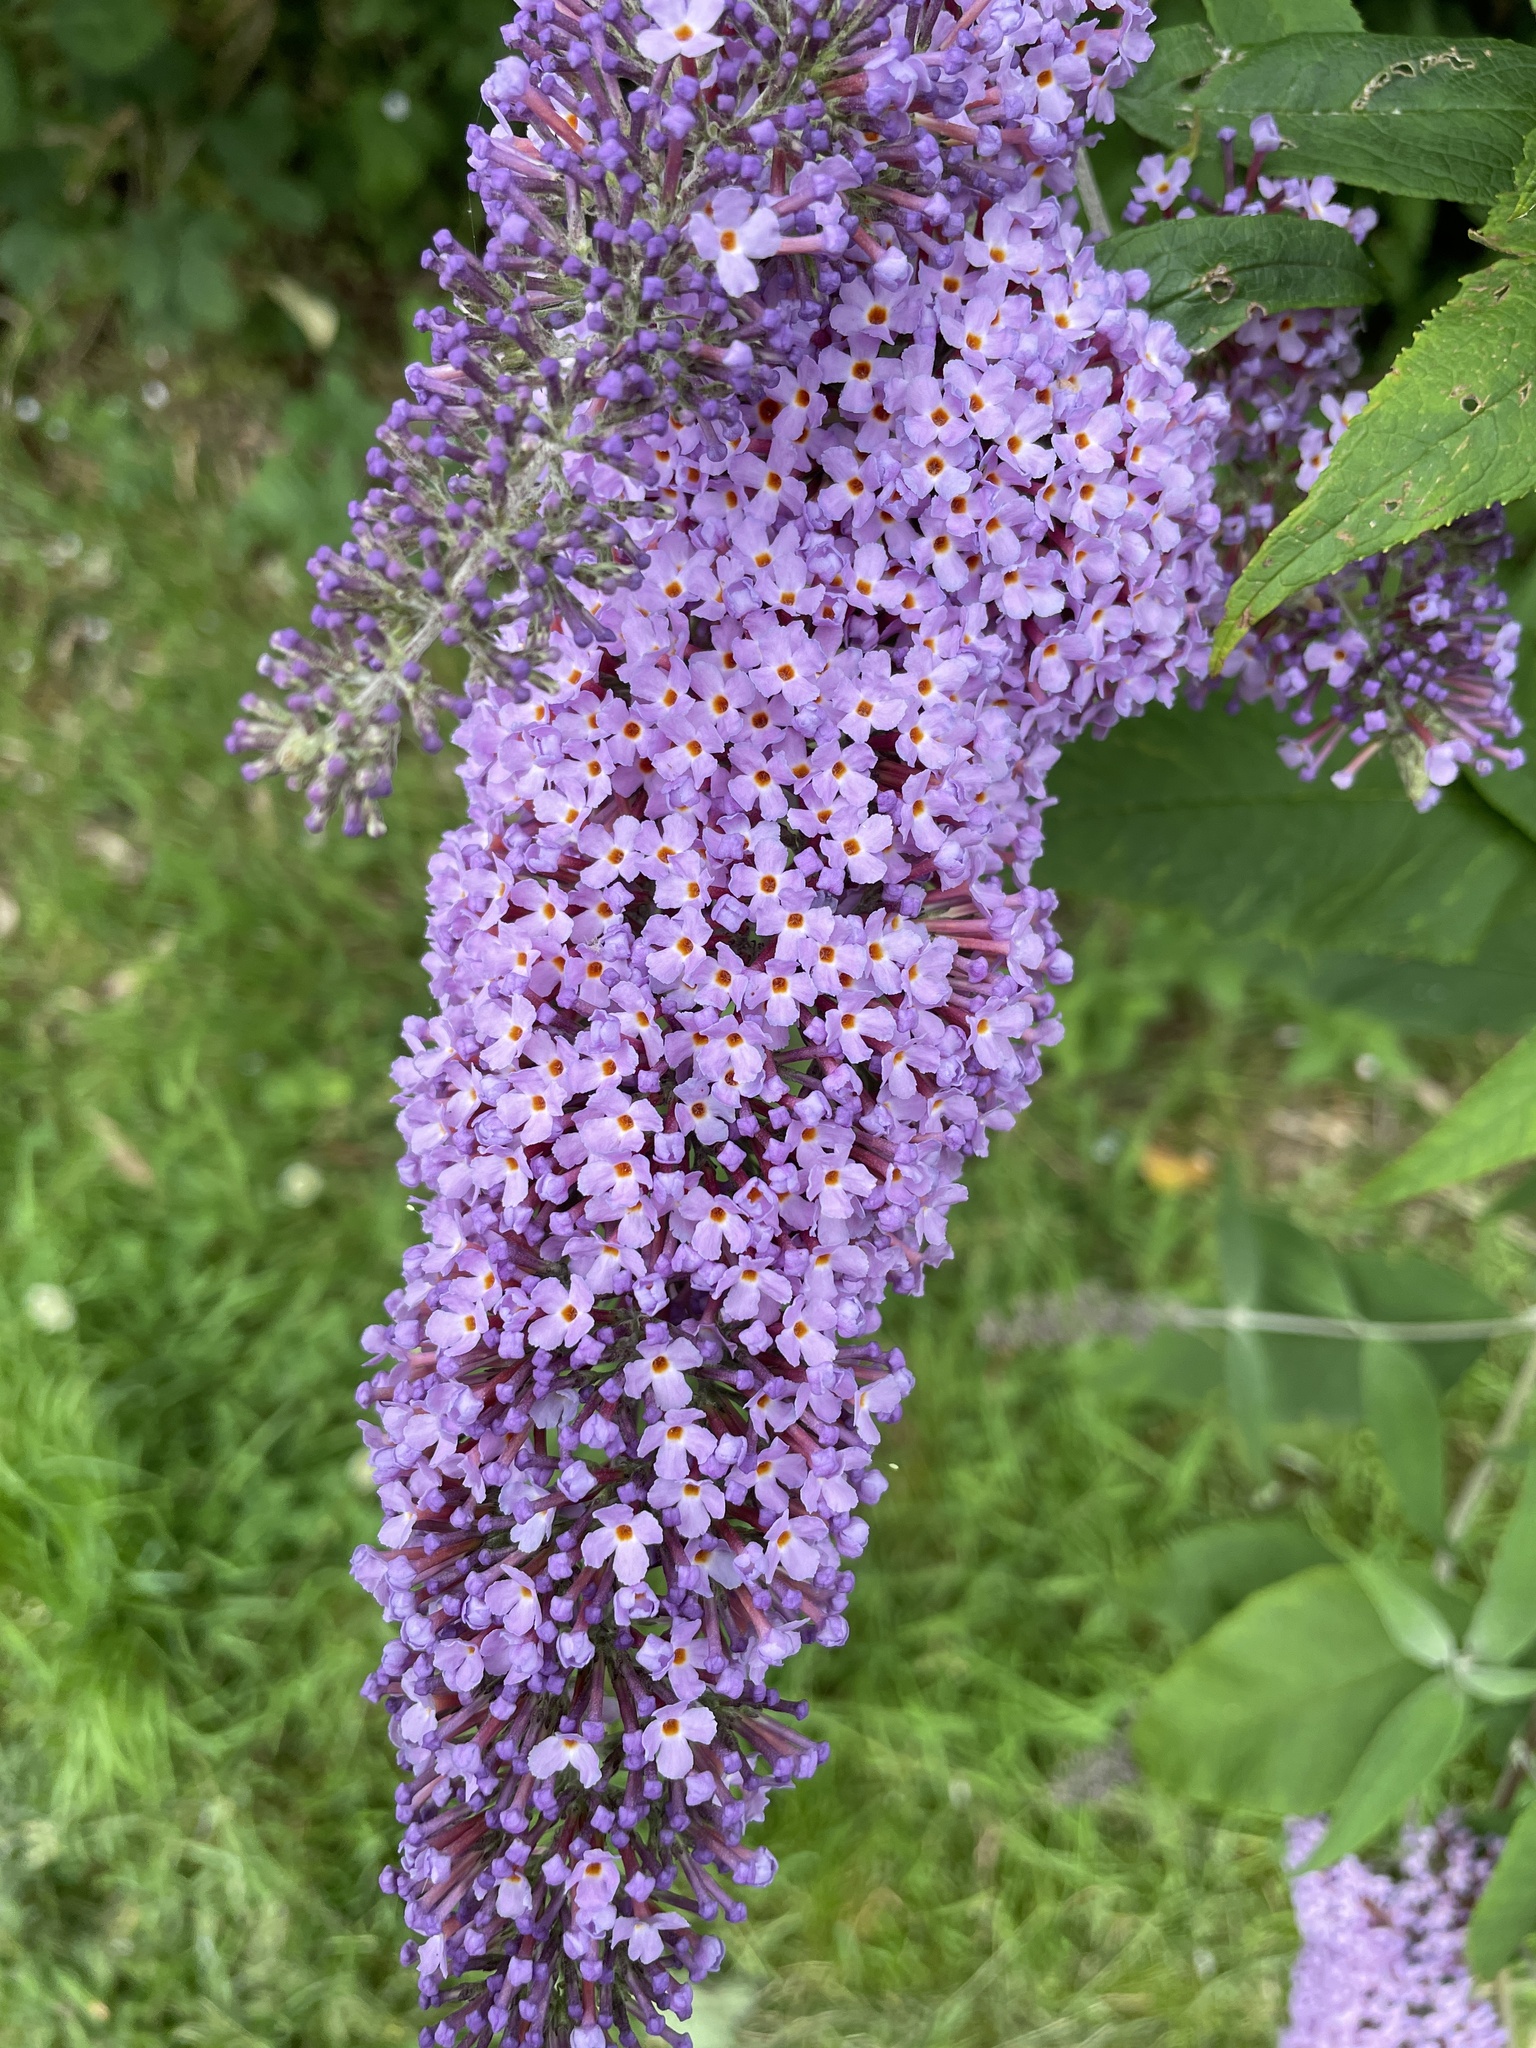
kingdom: Plantae
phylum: Tracheophyta
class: Magnoliopsida
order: Lamiales
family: Scrophulariaceae
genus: Buddleja
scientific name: Buddleja davidii
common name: Butterfly-bush
